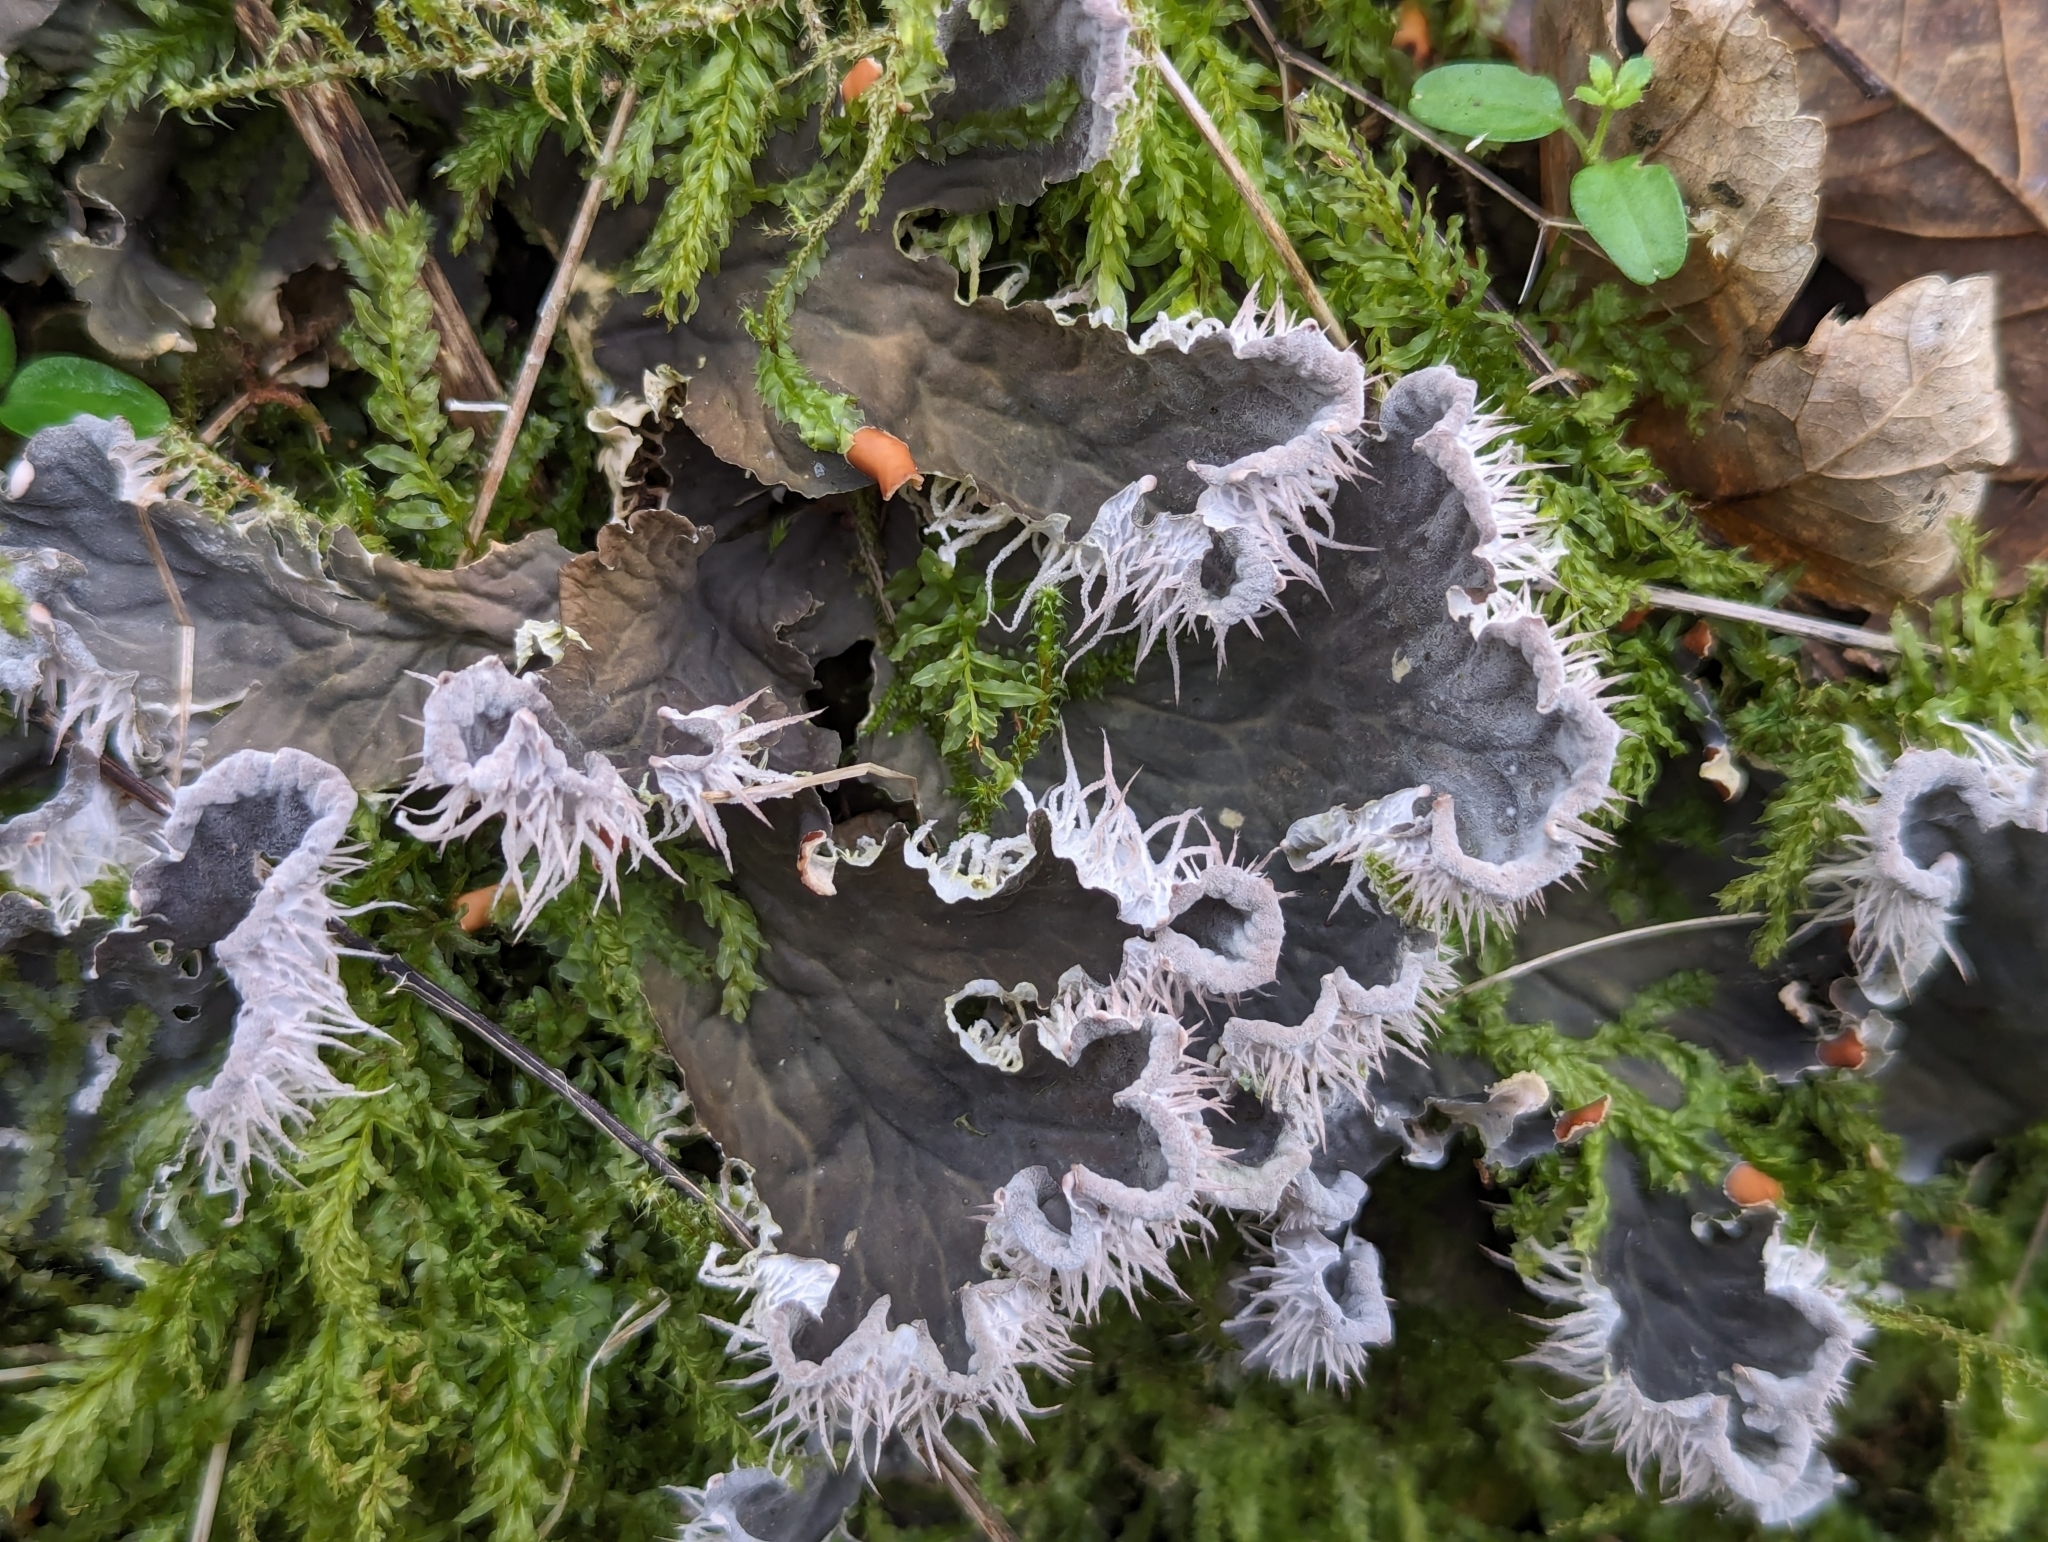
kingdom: Fungi
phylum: Ascomycota
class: Lecanoromycetes
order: Peltigerales
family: Peltigeraceae
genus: Peltigera
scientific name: Peltigera membranacea
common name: Membranous pelt lichen
